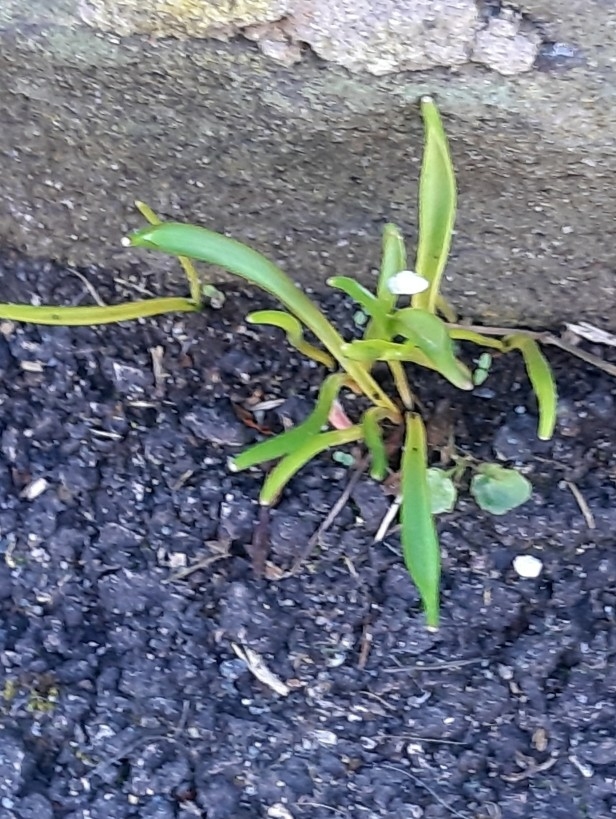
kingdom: Plantae
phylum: Tracheophyta
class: Liliopsida
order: Asparagales
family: Amaryllidaceae
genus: Galanthus
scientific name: Galanthus nivalis
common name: Snowdrop
